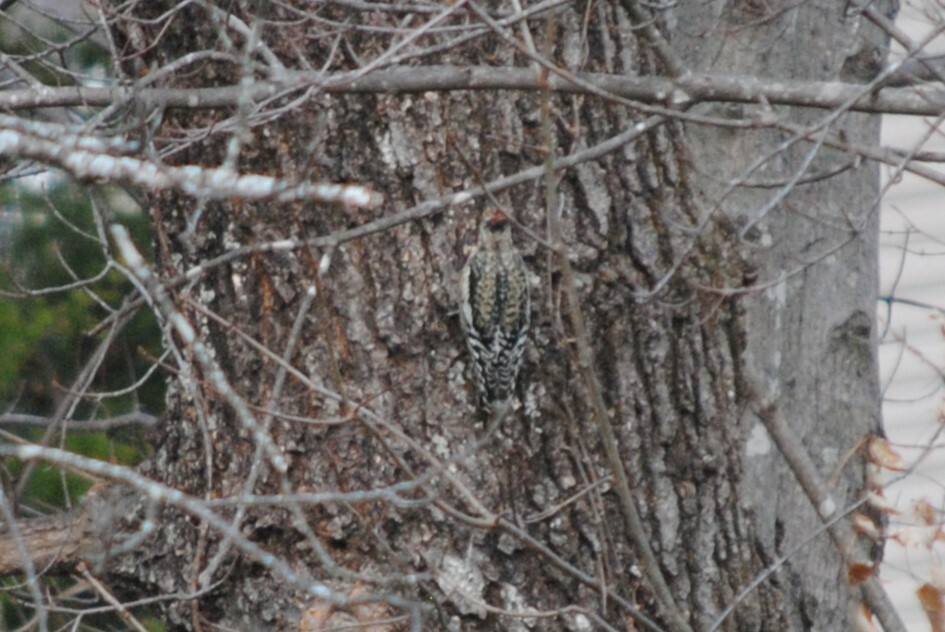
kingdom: Animalia
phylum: Chordata
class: Aves
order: Piciformes
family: Picidae
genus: Sphyrapicus
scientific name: Sphyrapicus varius
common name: Yellow-bellied sapsucker
